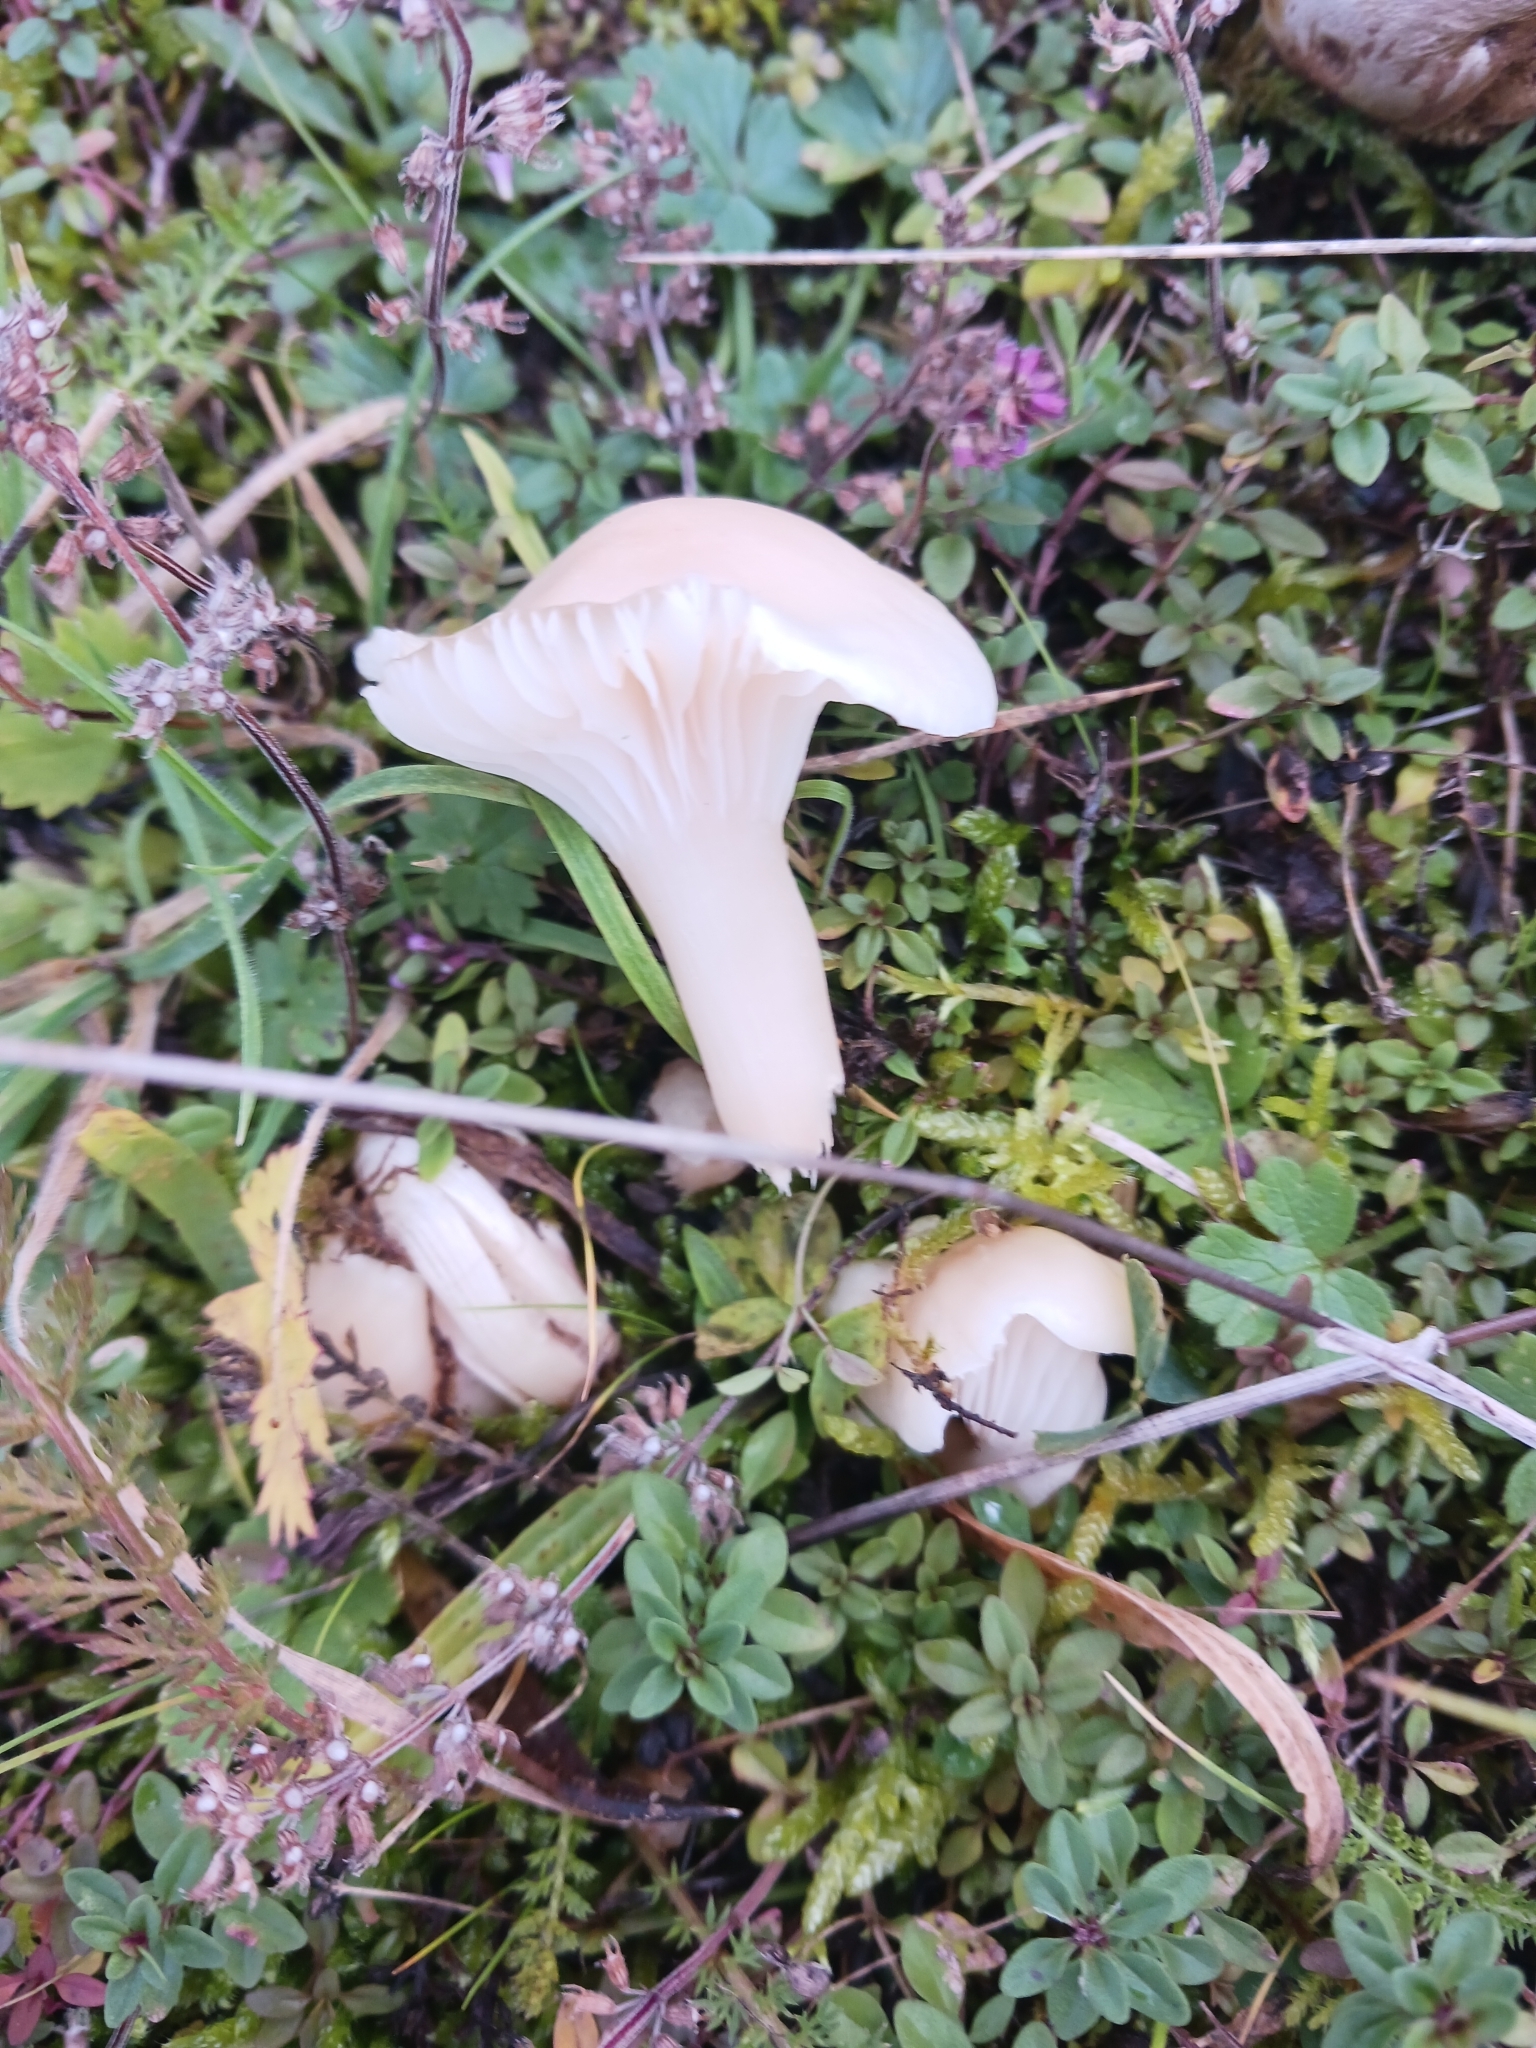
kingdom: Fungi
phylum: Basidiomycota
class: Agaricomycetes
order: Agaricales
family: Hygrophoraceae
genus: Cuphophyllus
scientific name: Cuphophyllus virgineus
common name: Snowy waxcap
